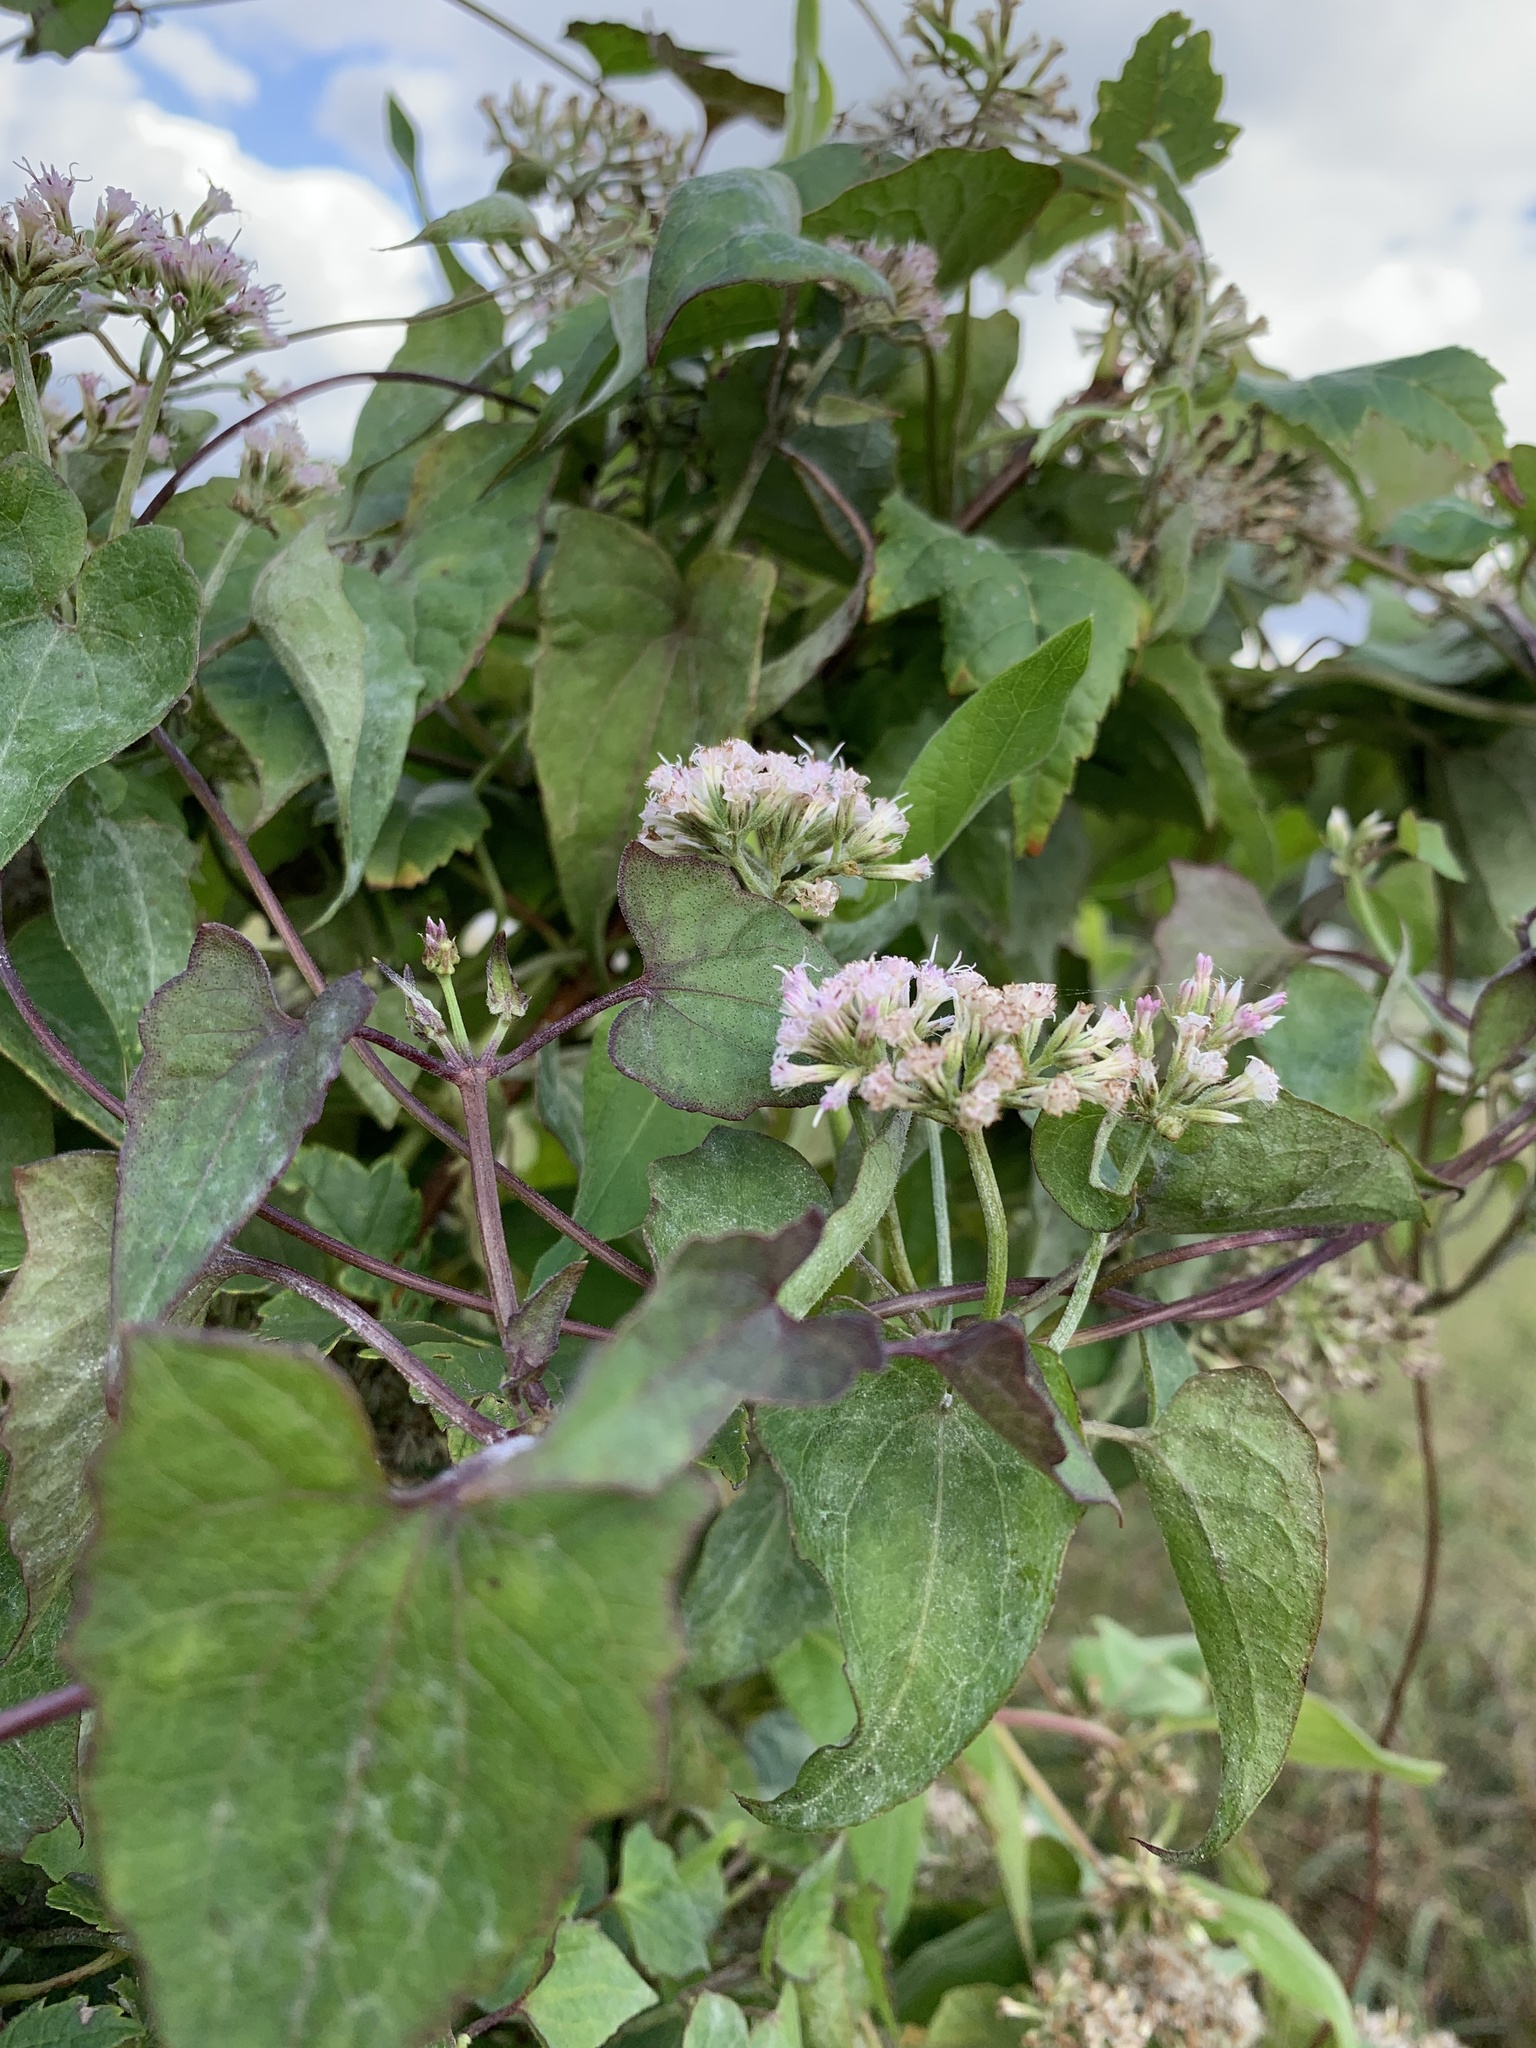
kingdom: Plantae
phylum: Tracheophyta
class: Magnoliopsida
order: Asterales
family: Asteraceae
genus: Mikania
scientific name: Mikania scandens
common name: Climbing hempvine
